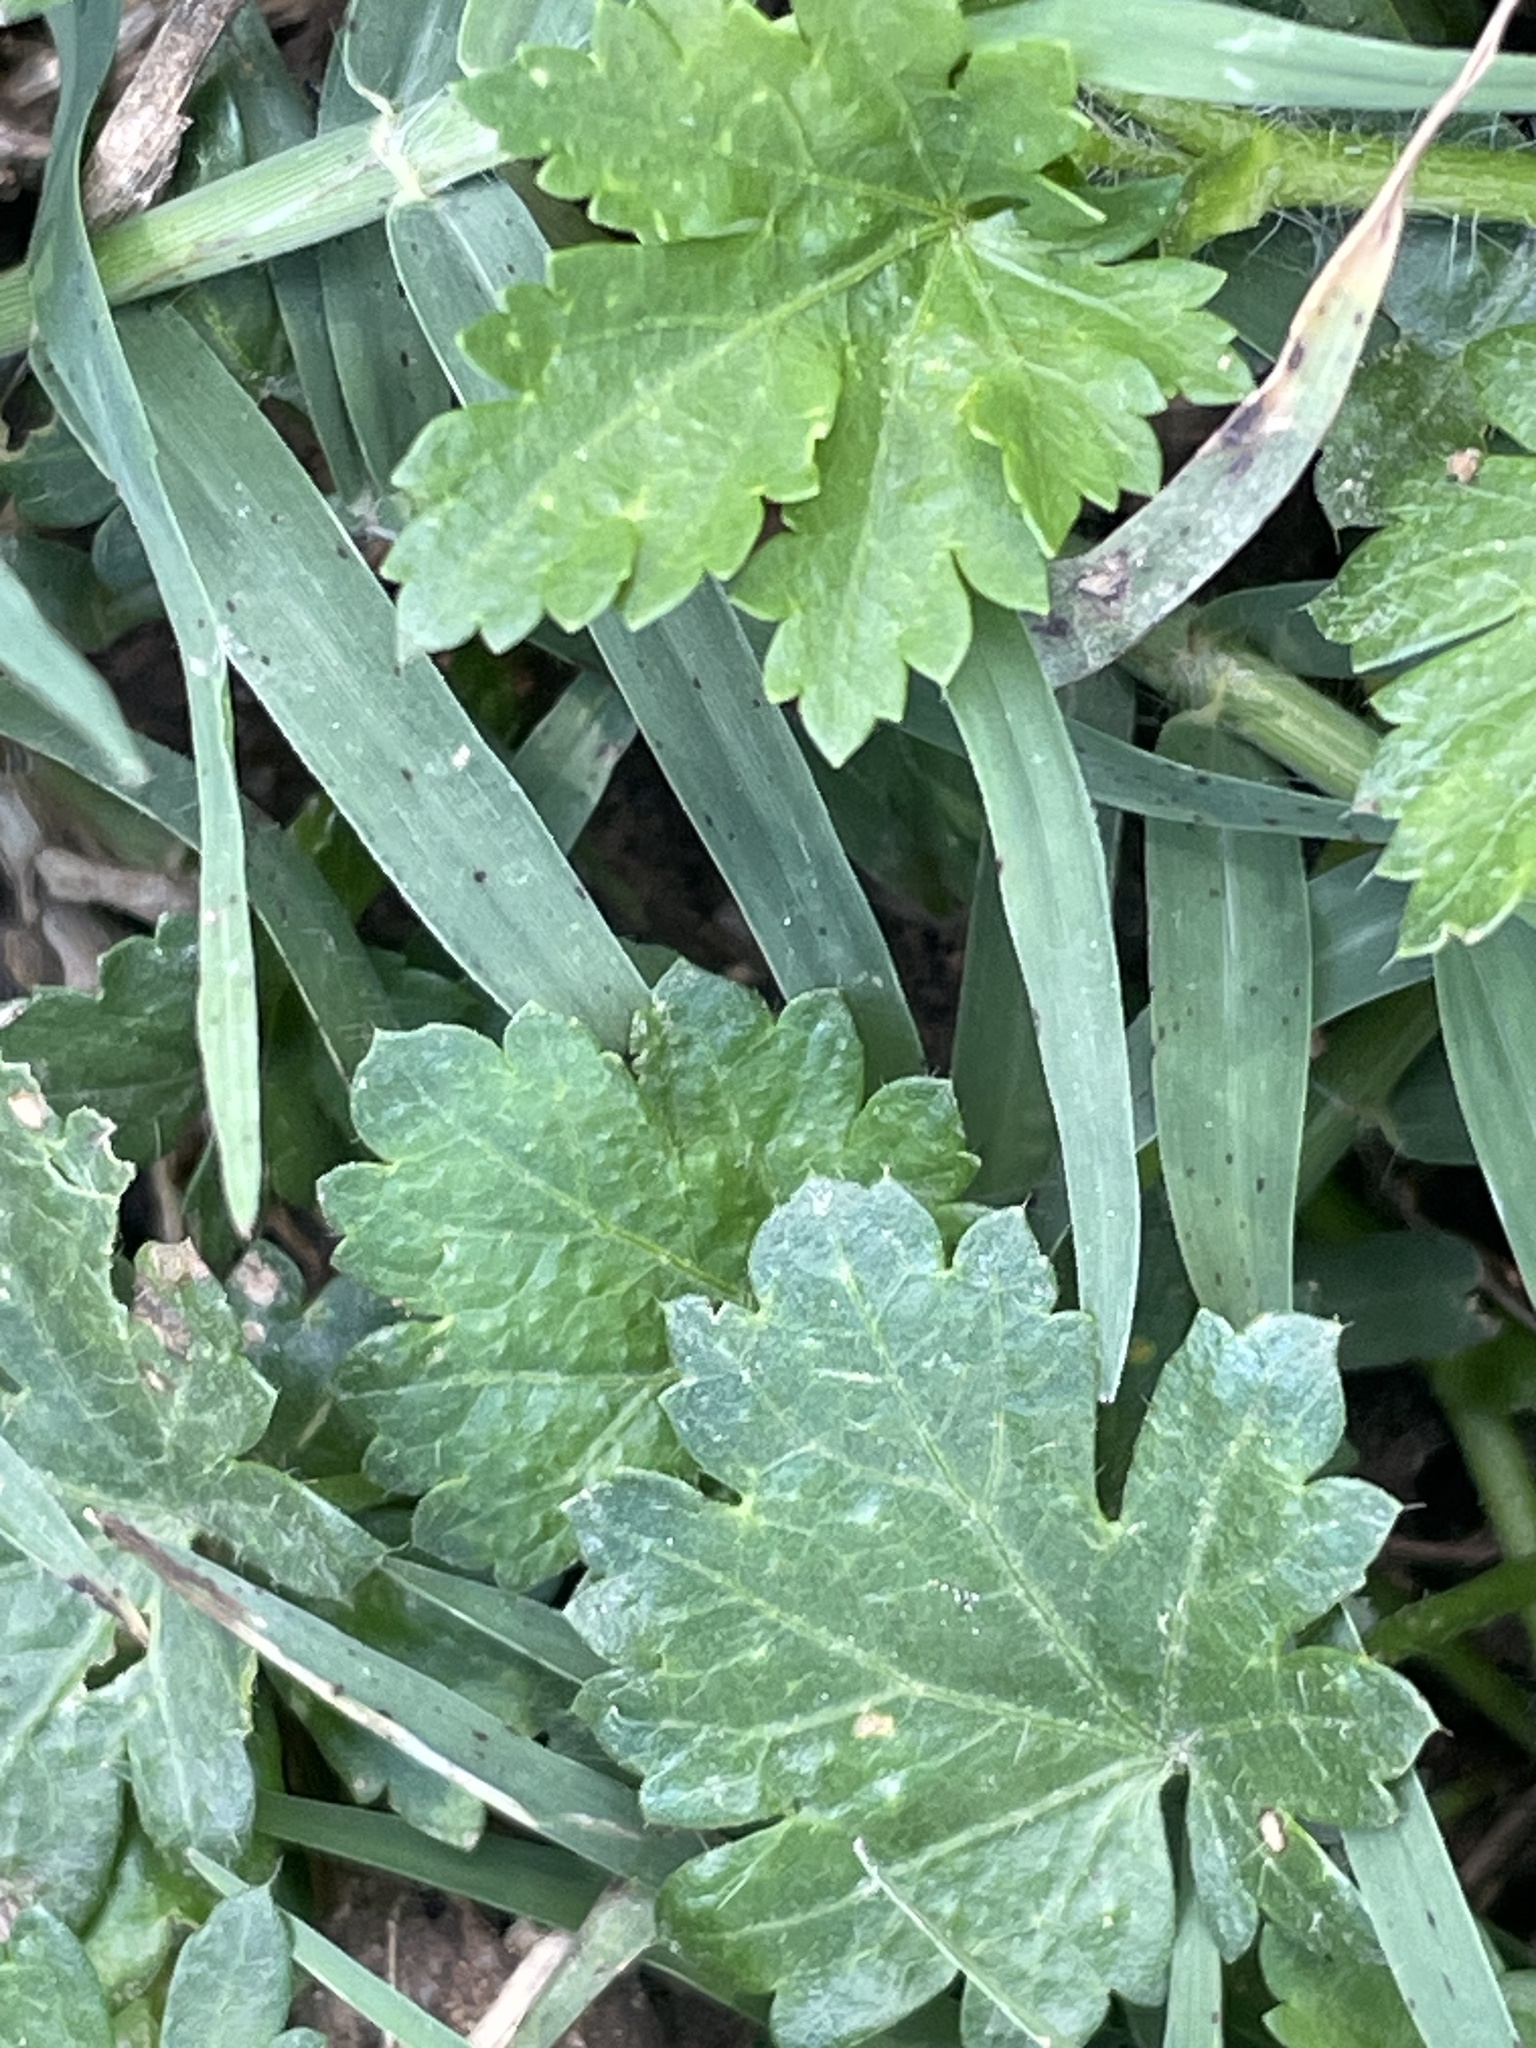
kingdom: Plantae
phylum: Tracheophyta
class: Magnoliopsida
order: Malvales
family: Malvaceae
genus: Modiola
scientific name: Modiola caroliniana
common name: Carolina bristlemallow
